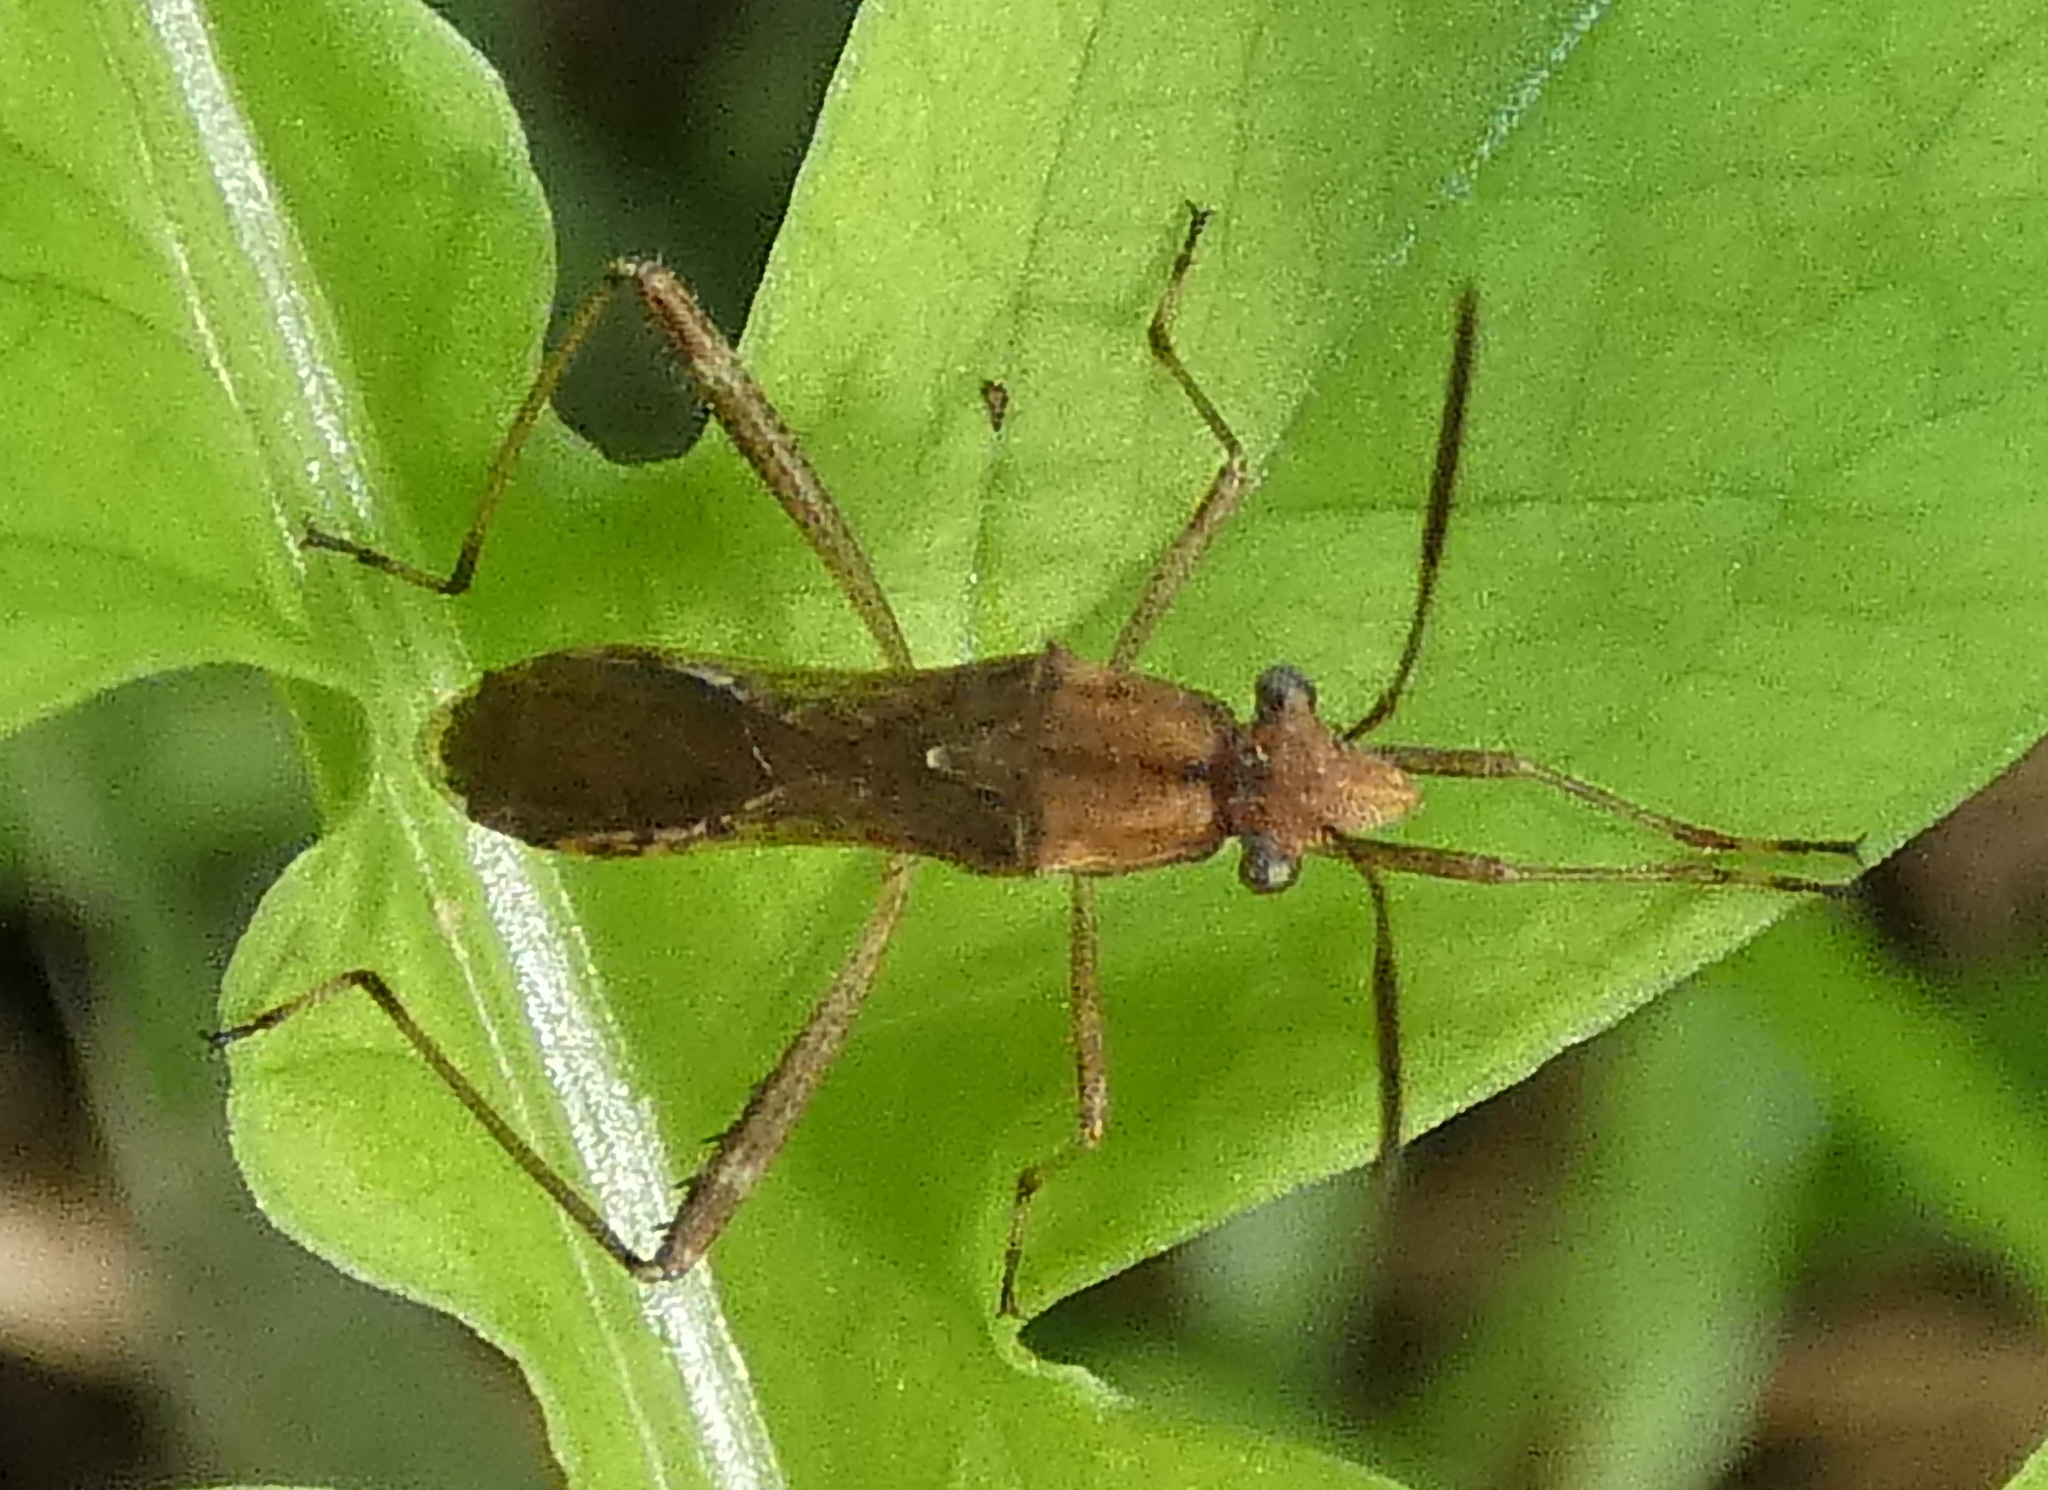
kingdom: Animalia
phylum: Arthropoda
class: Insecta
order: Hemiptera
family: Alydidae
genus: Neomegalotomus
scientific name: Neomegalotomus parvus
